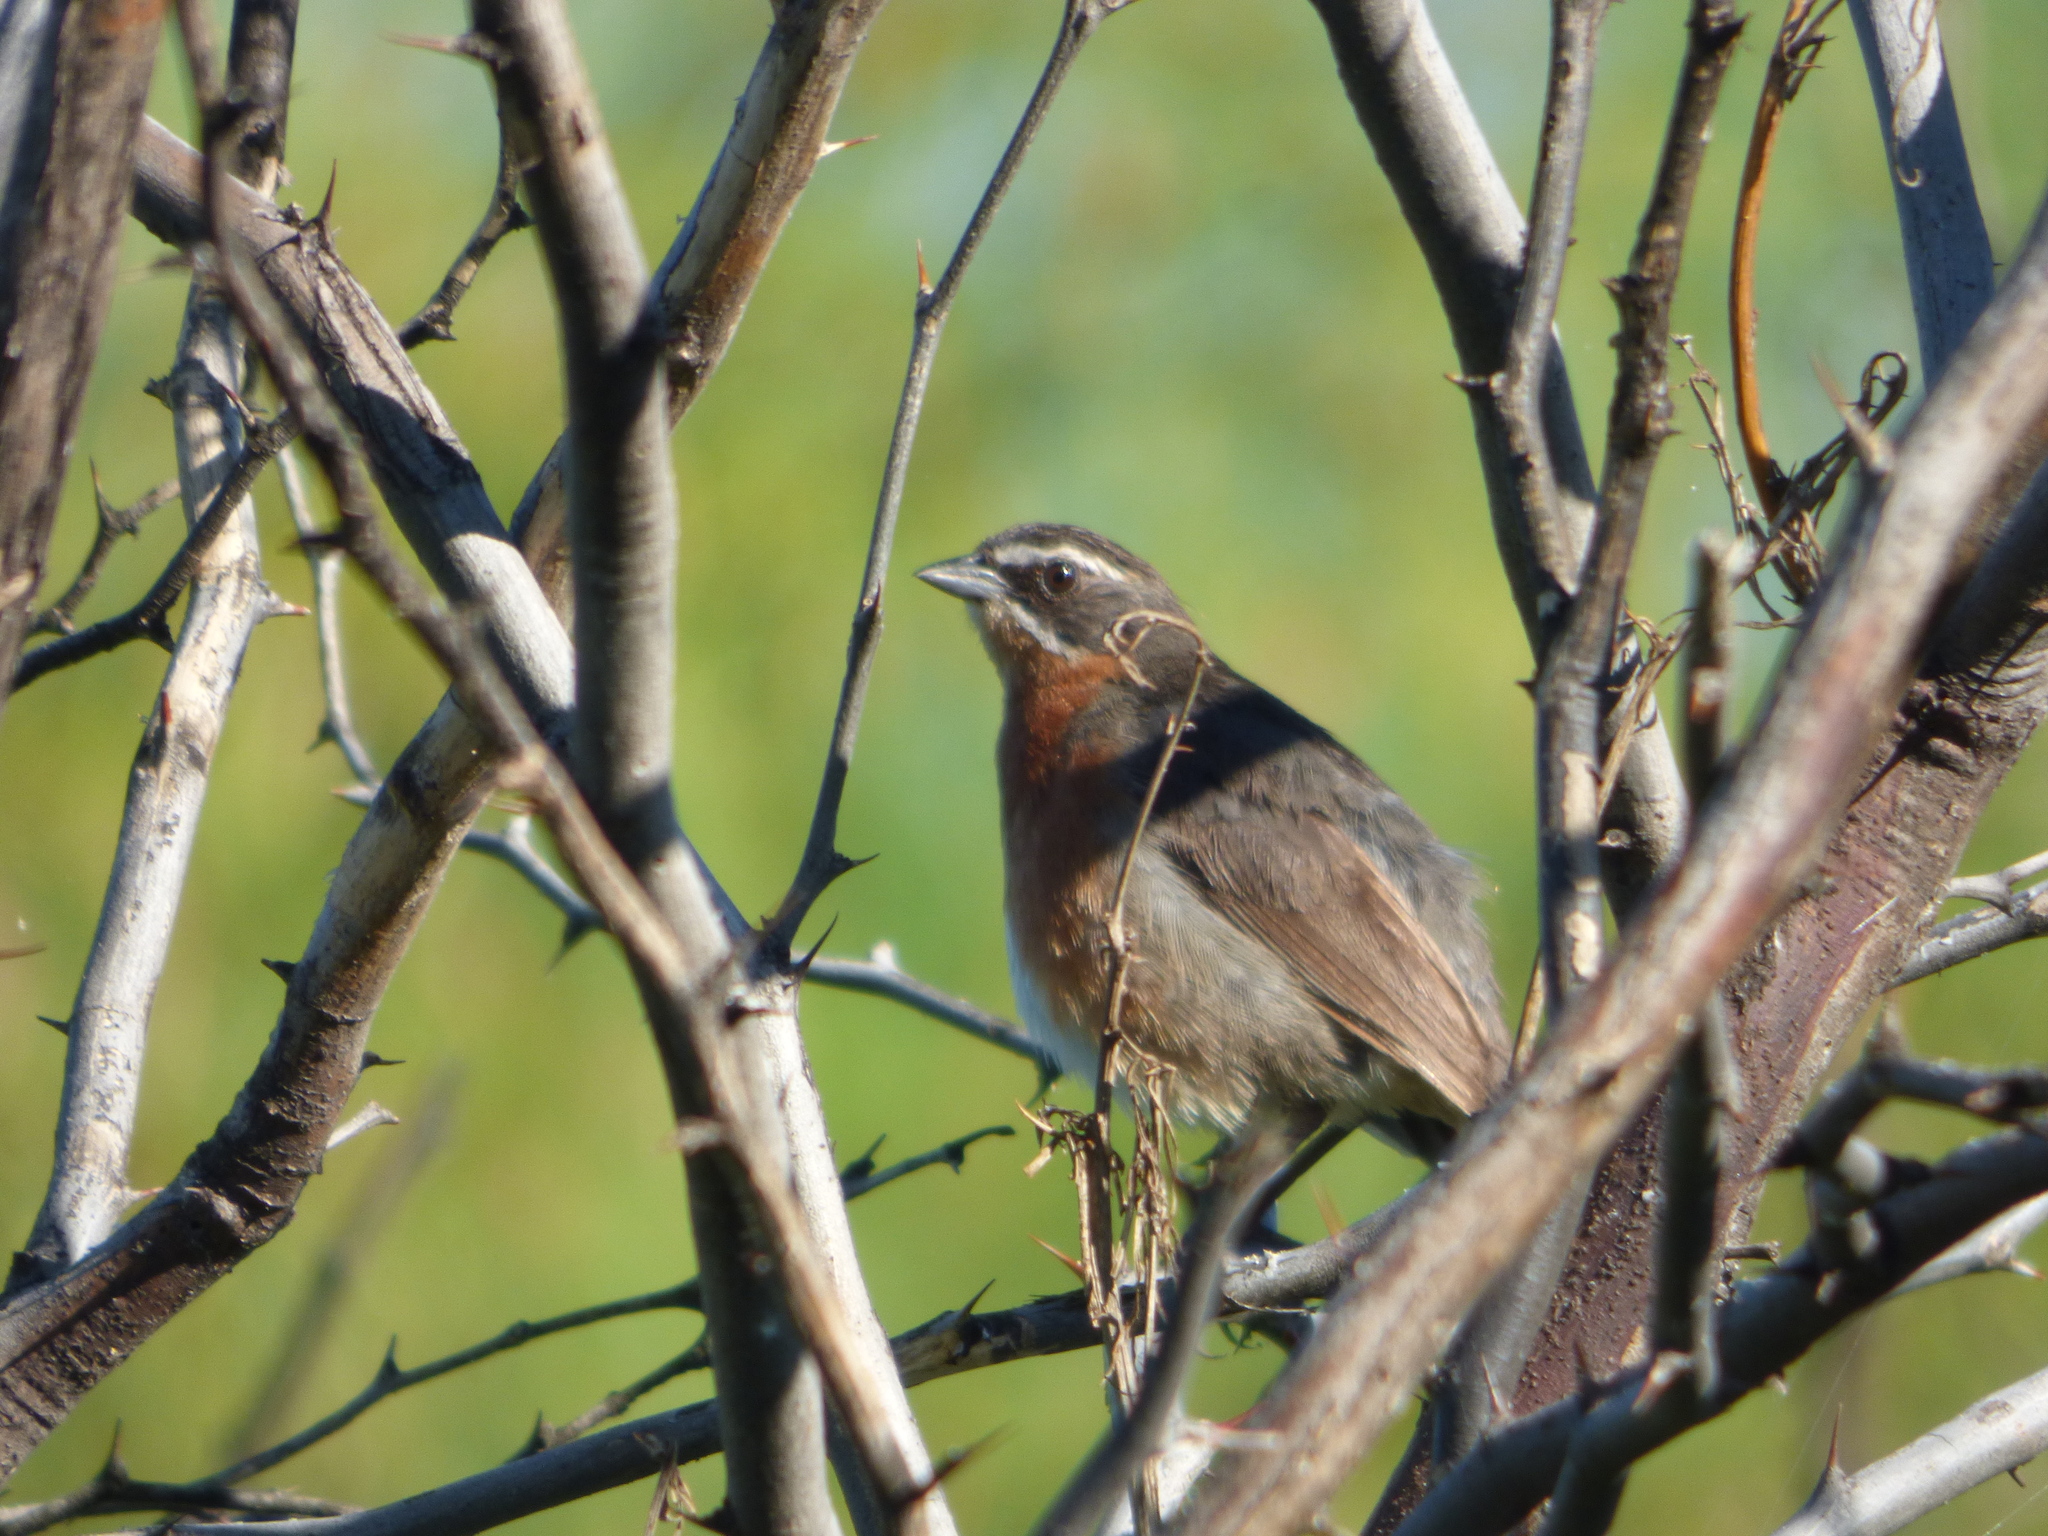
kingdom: Animalia
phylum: Chordata
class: Aves
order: Passeriformes
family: Thraupidae
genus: Poospiza
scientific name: Poospiza nigrorufa
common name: Black-and-rufous warbling finch
